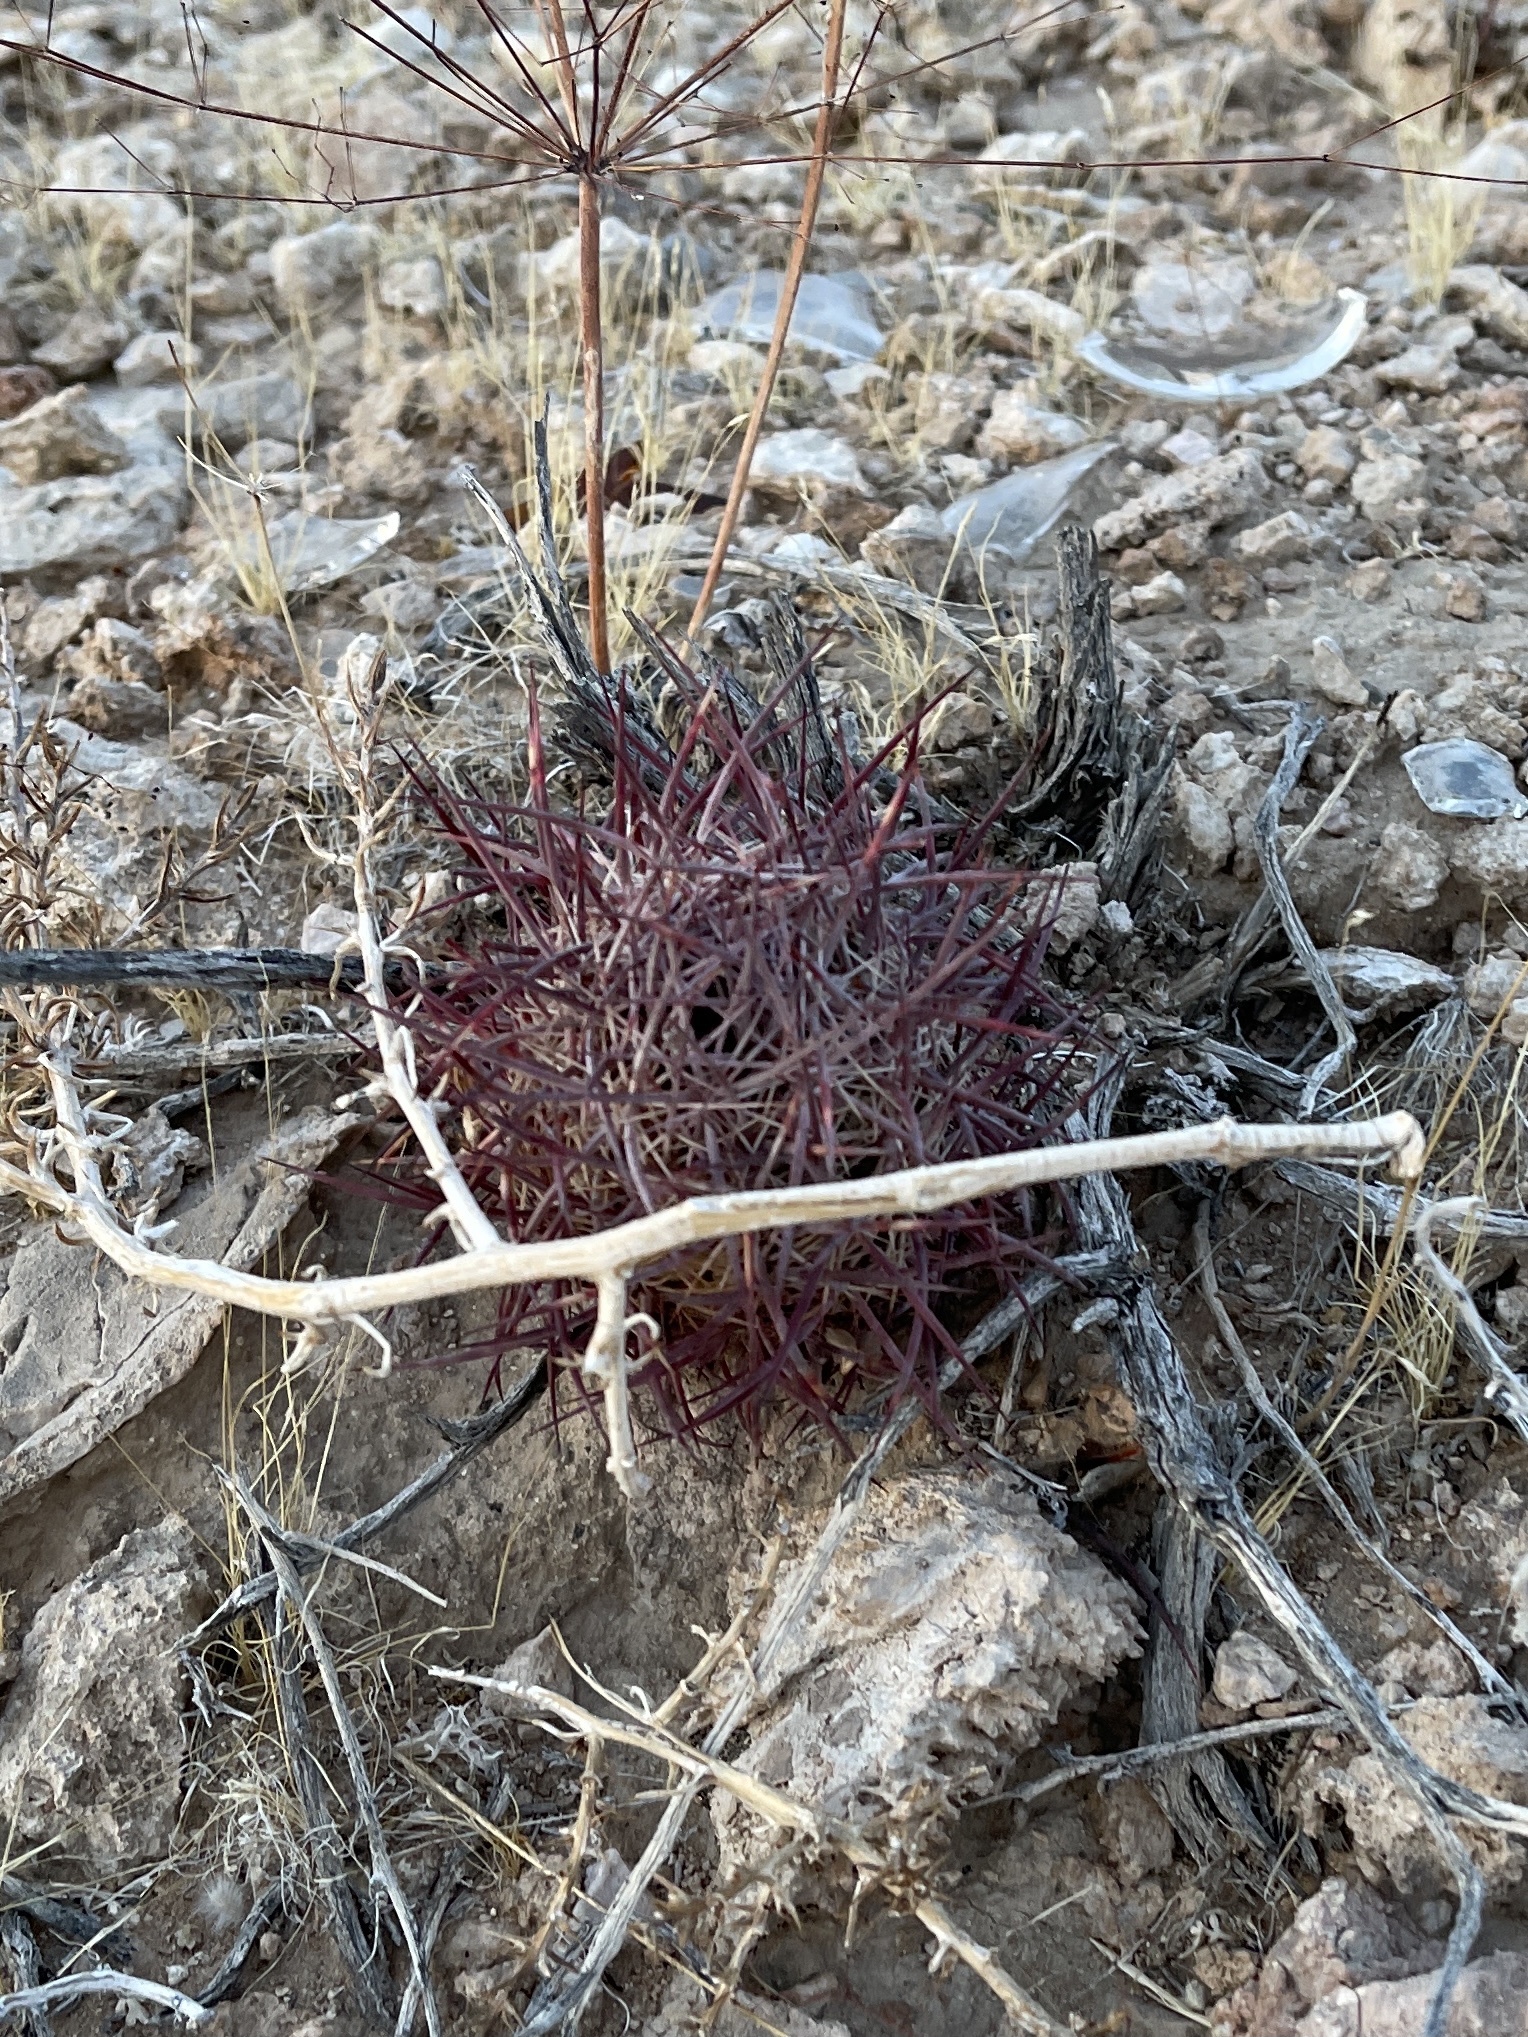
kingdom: Plantae
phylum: Tracheophyta
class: Magnoliopsida
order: Caryophyllales
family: Cactaceae
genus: Sclerocactus
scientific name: Sclerocactus johnsonii
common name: Eight-spine fishhook cactus
